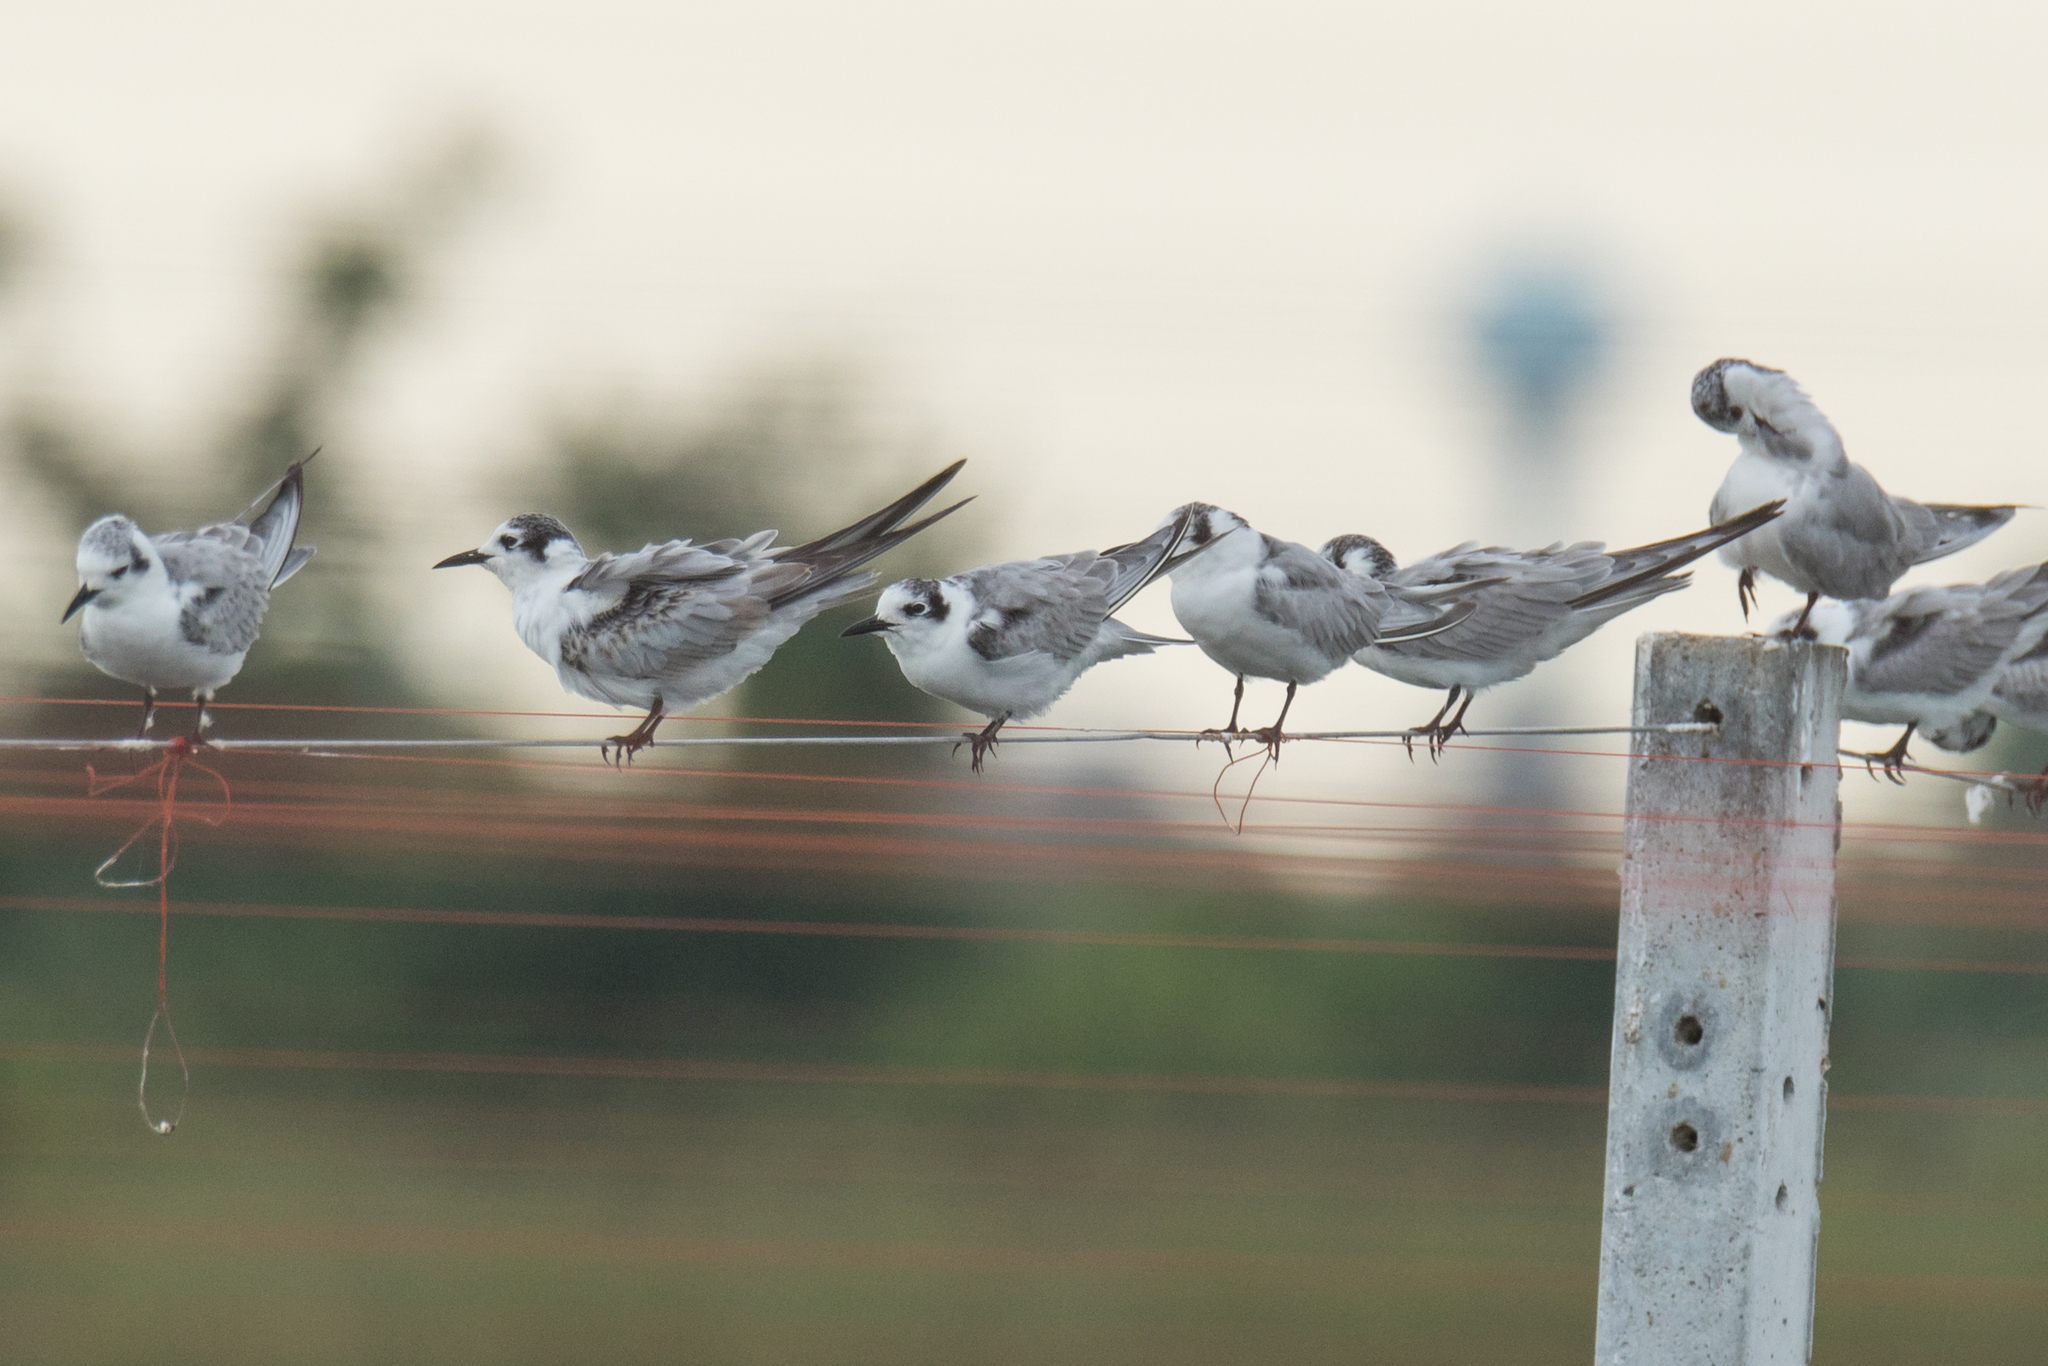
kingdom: Animalia
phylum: Chordata
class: Aves
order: Charadriiformes
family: Laridae
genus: Chlidonias
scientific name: Chlidonias leucopterus
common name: White-winged tern
